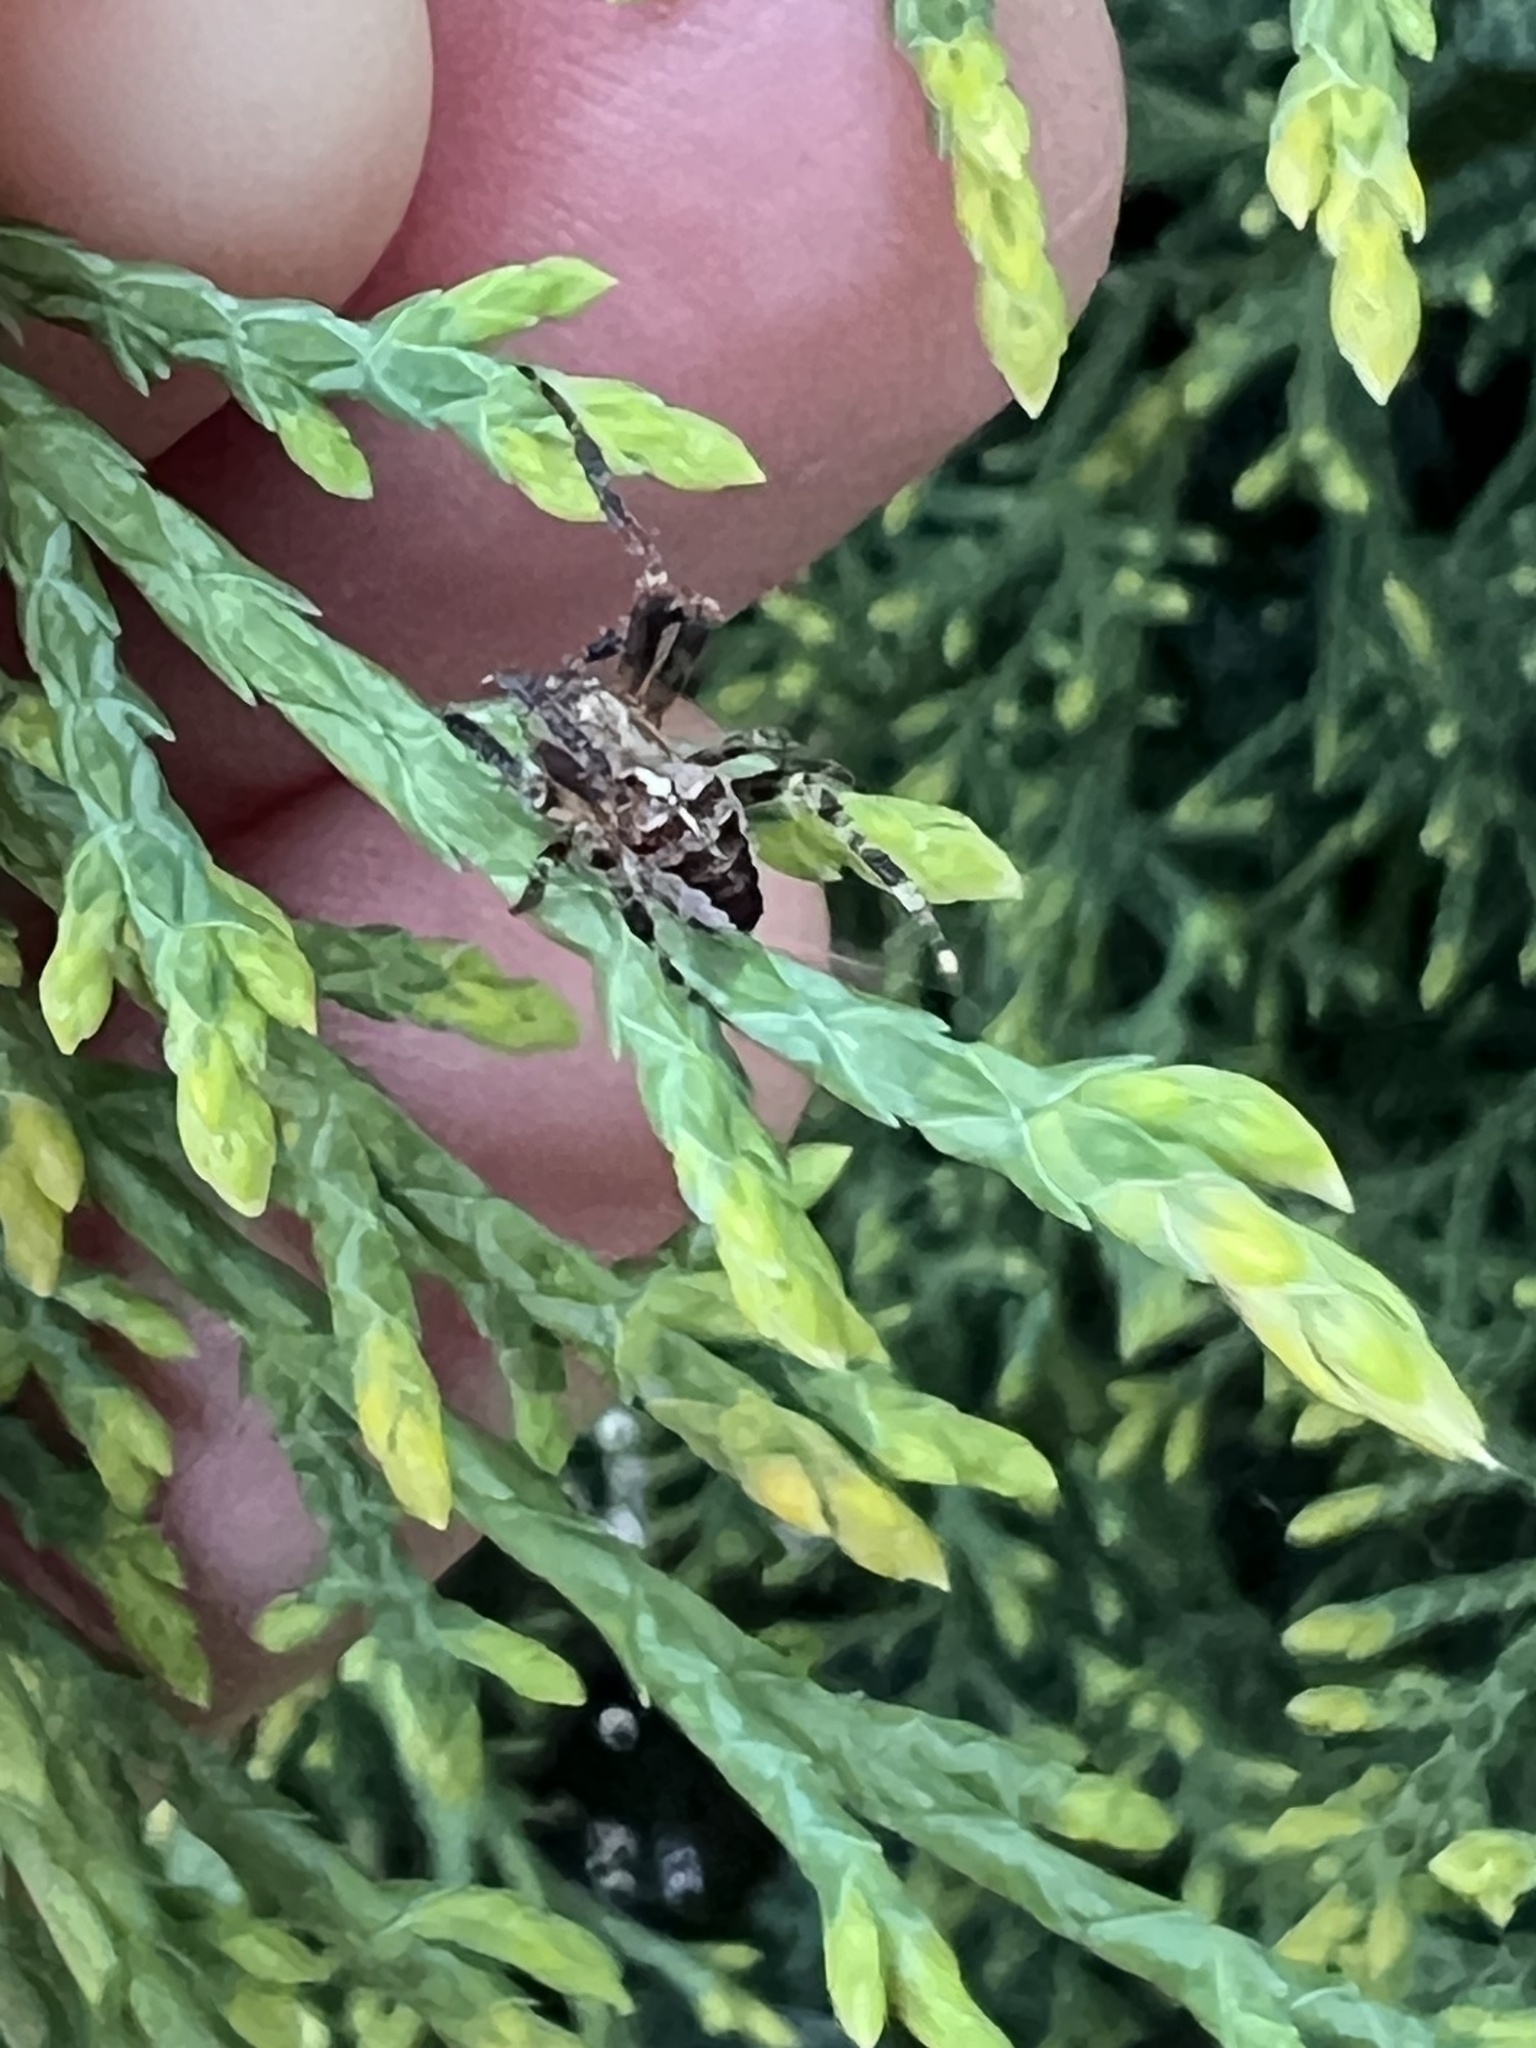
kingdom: Animalia
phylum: Arthropoda
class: Arachnida
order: Araneae
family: Araneidae
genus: Araneus
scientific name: Araneus diadematus
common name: Cross orbweaver
